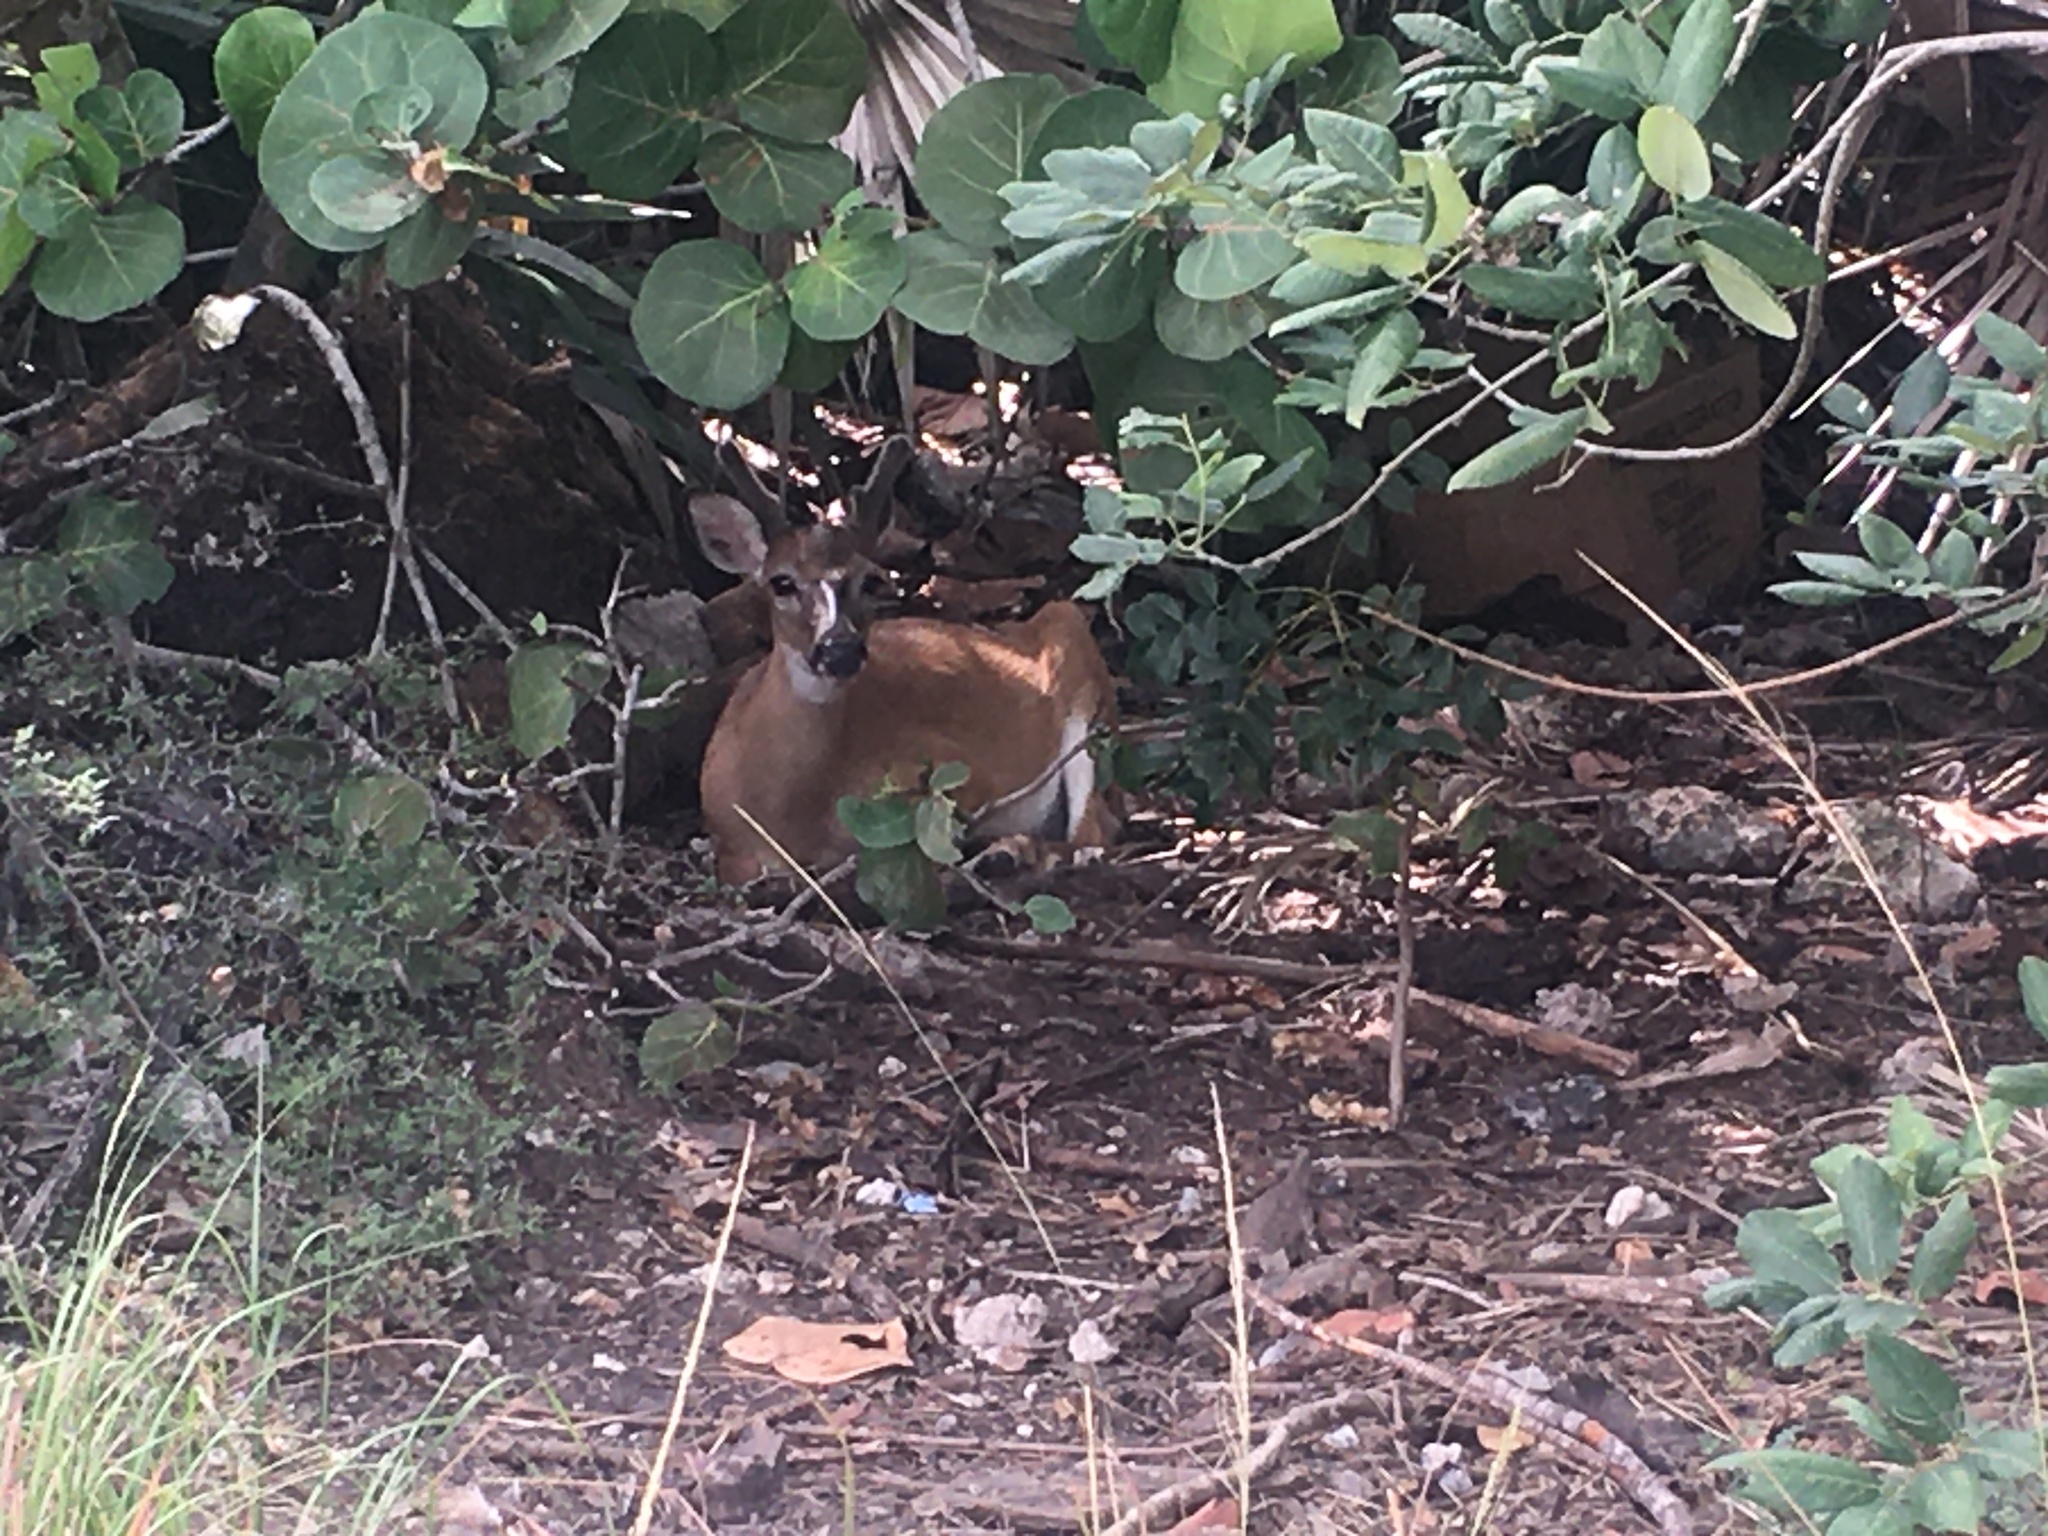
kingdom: Animalia
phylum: Chordata
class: Mammalia
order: Artiodactyla
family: Cervidae
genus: Odocoileus
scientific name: Odocoileus virginianus
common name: White-tailed deer
